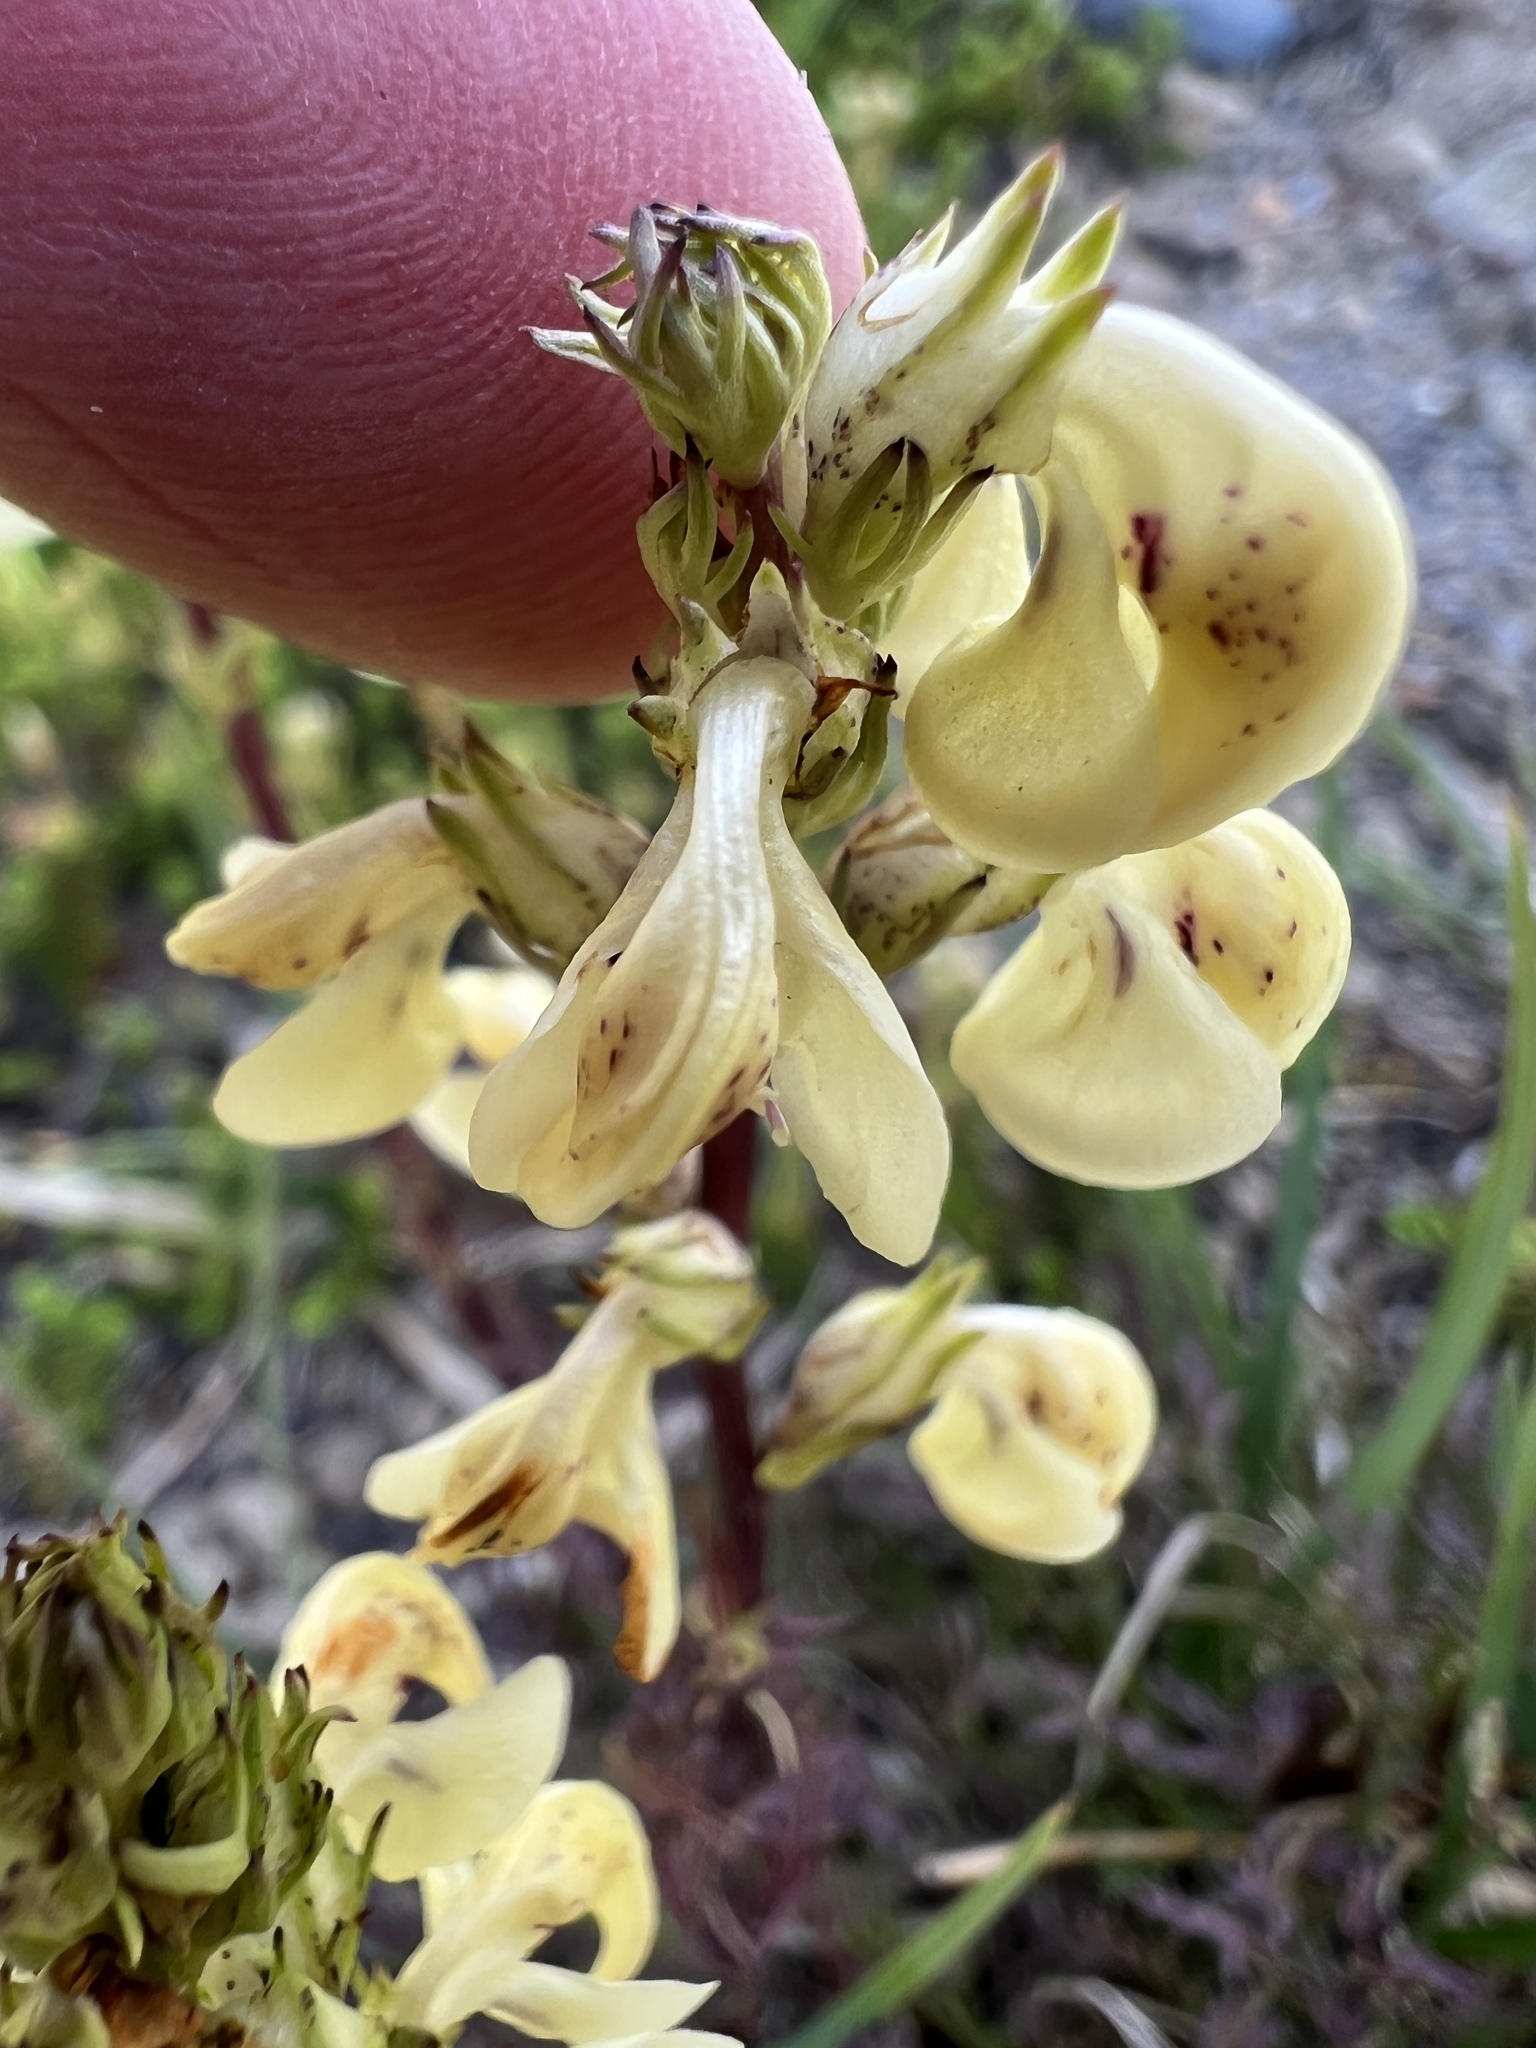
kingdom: Plantae
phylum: Tracheophyta
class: Magnoliopsida
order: Lamiales
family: Orobanchaceae
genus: Pedicularis
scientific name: Pedicularis contorta
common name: Coiled lousewort
